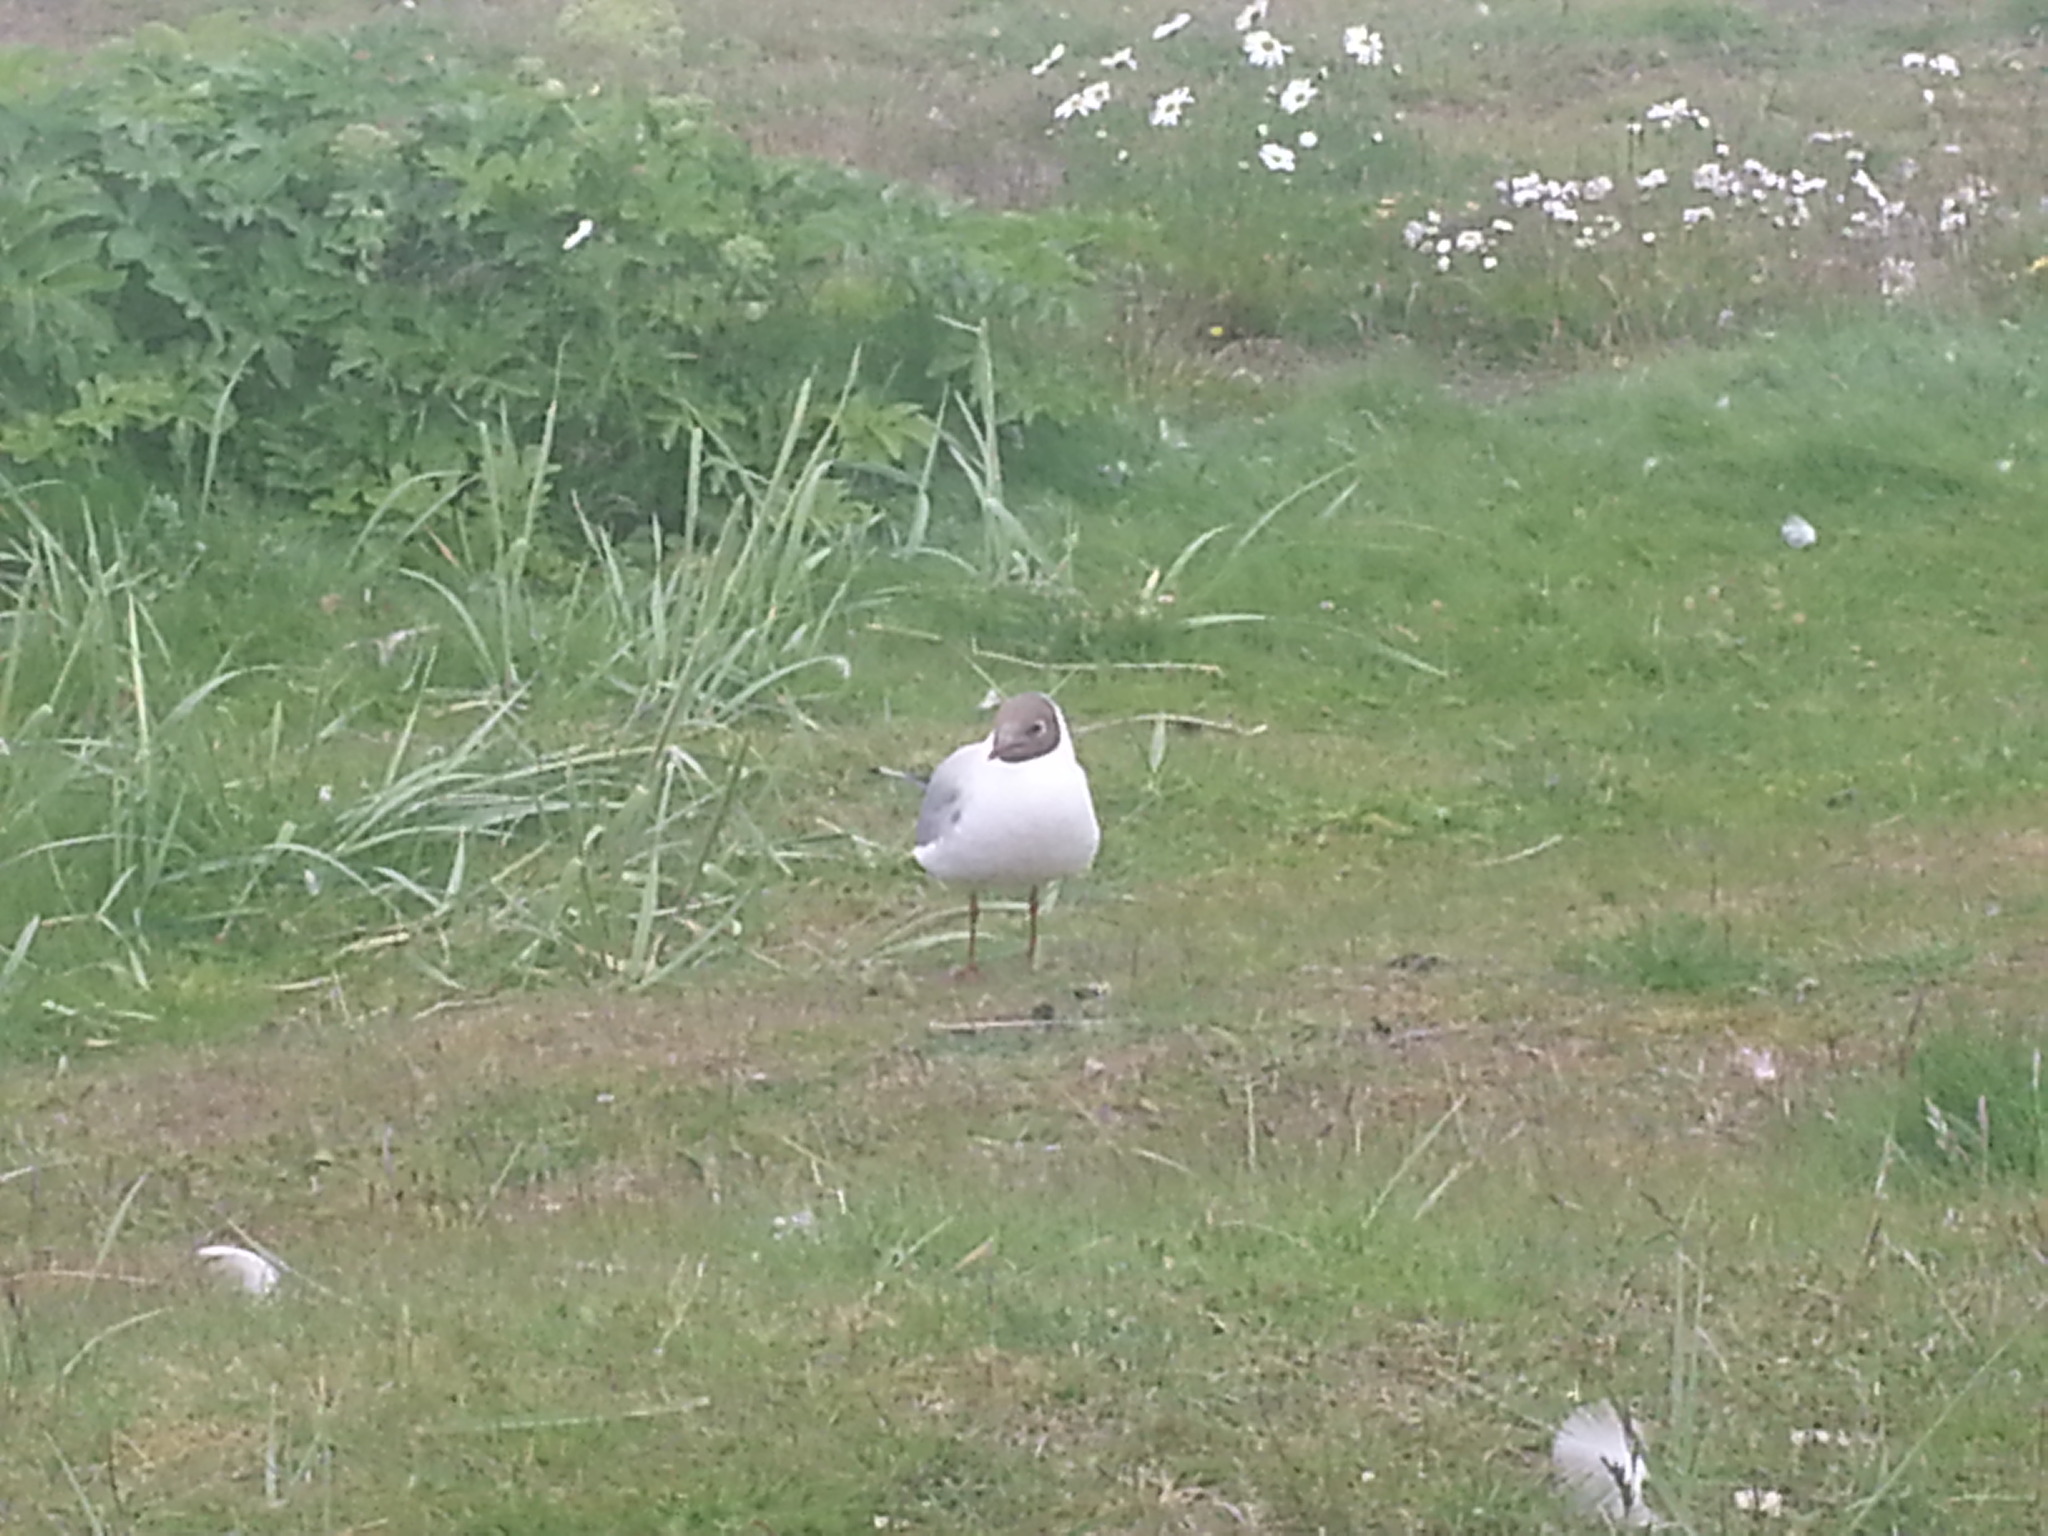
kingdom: Animalia
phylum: Chordata
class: Aves
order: Charadriiformes
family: Laridae
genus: Chroicocephalus
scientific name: Chroicocephalus ridibundus
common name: Black-headed gull
